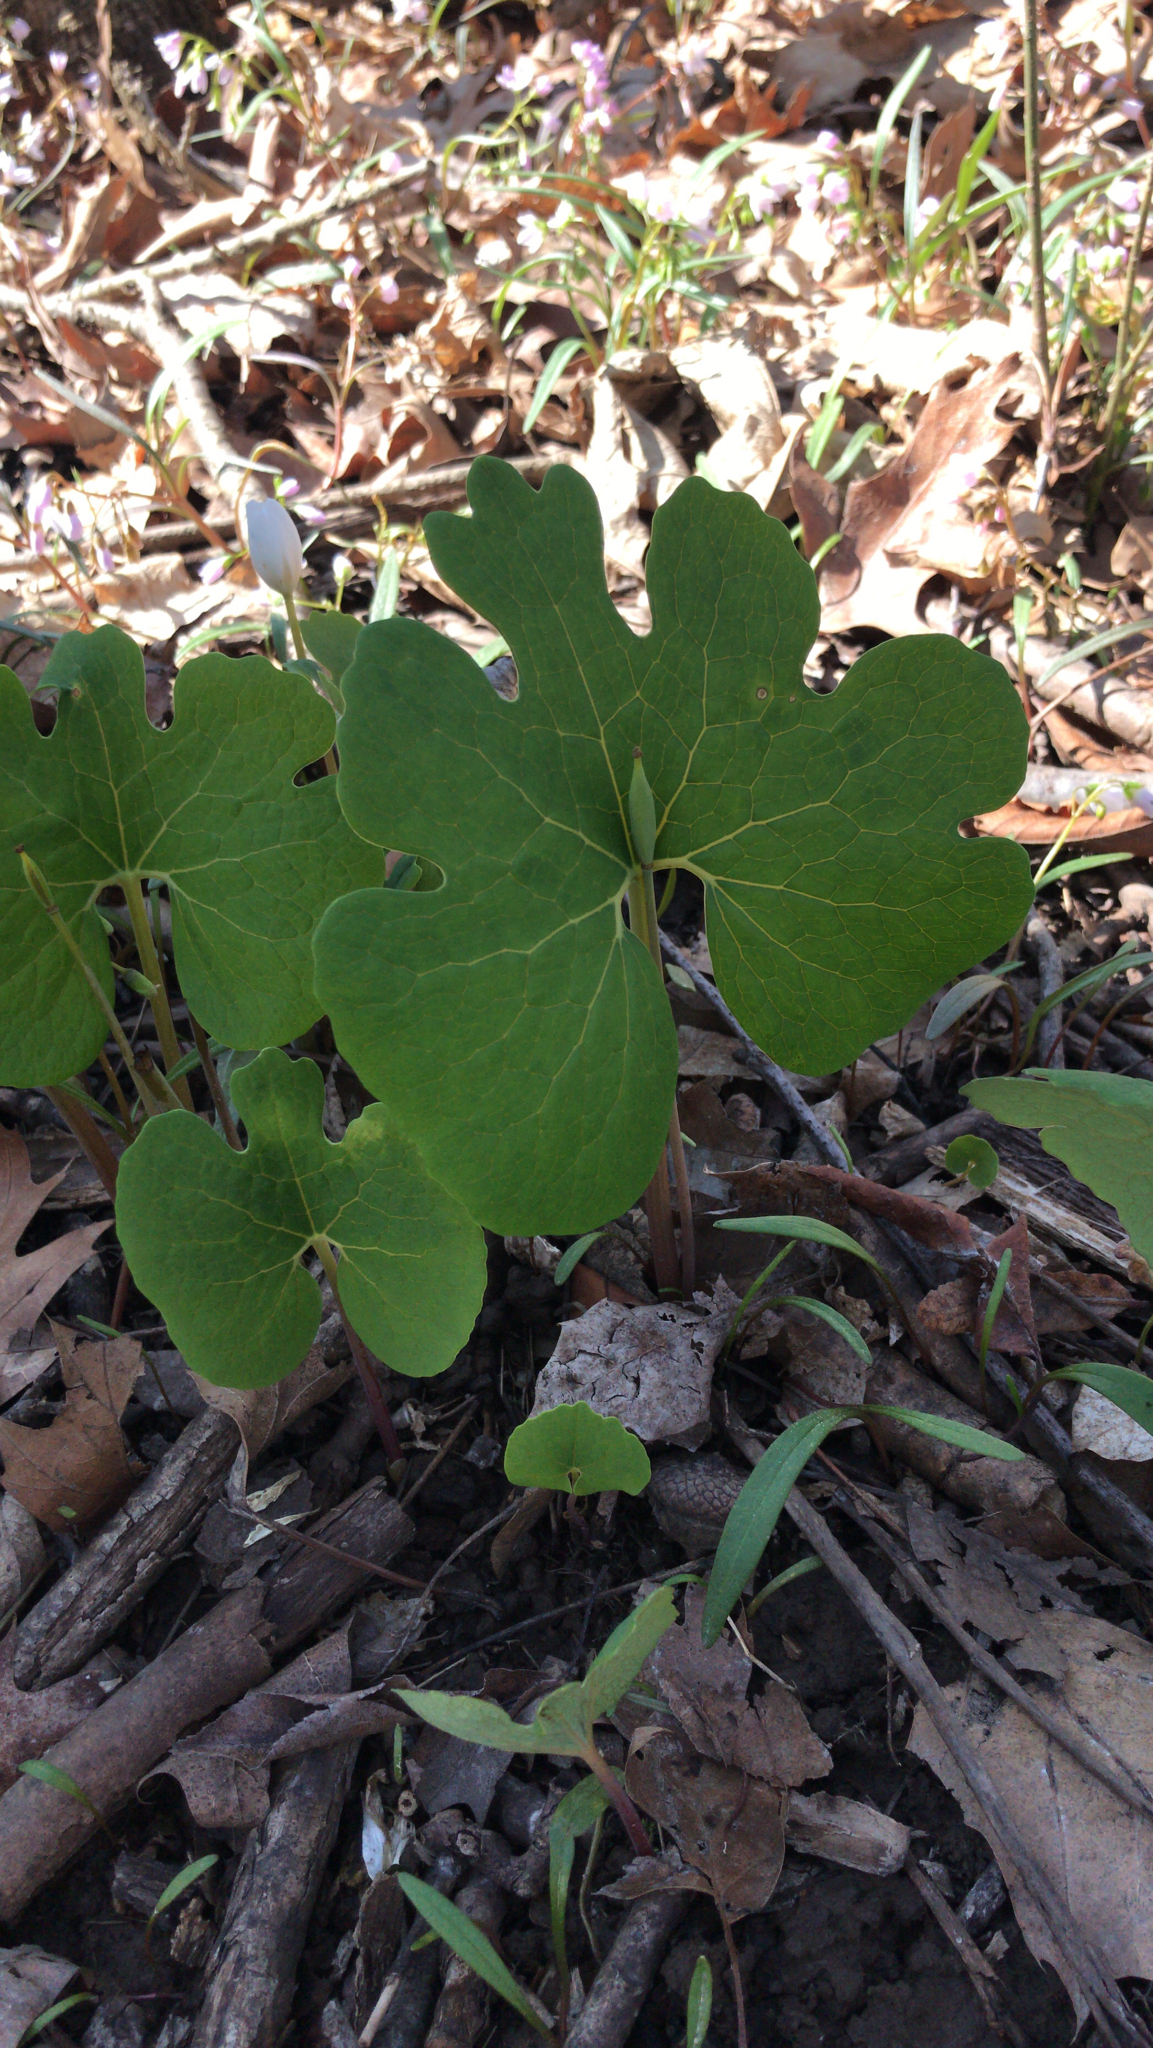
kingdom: Plantae
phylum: Tracheophyta
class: Magnoliopsida
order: Ranunculales
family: Papaveraceae
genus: Sanguinaria
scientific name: Sanguinaria canadensis
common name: Bloodroot
